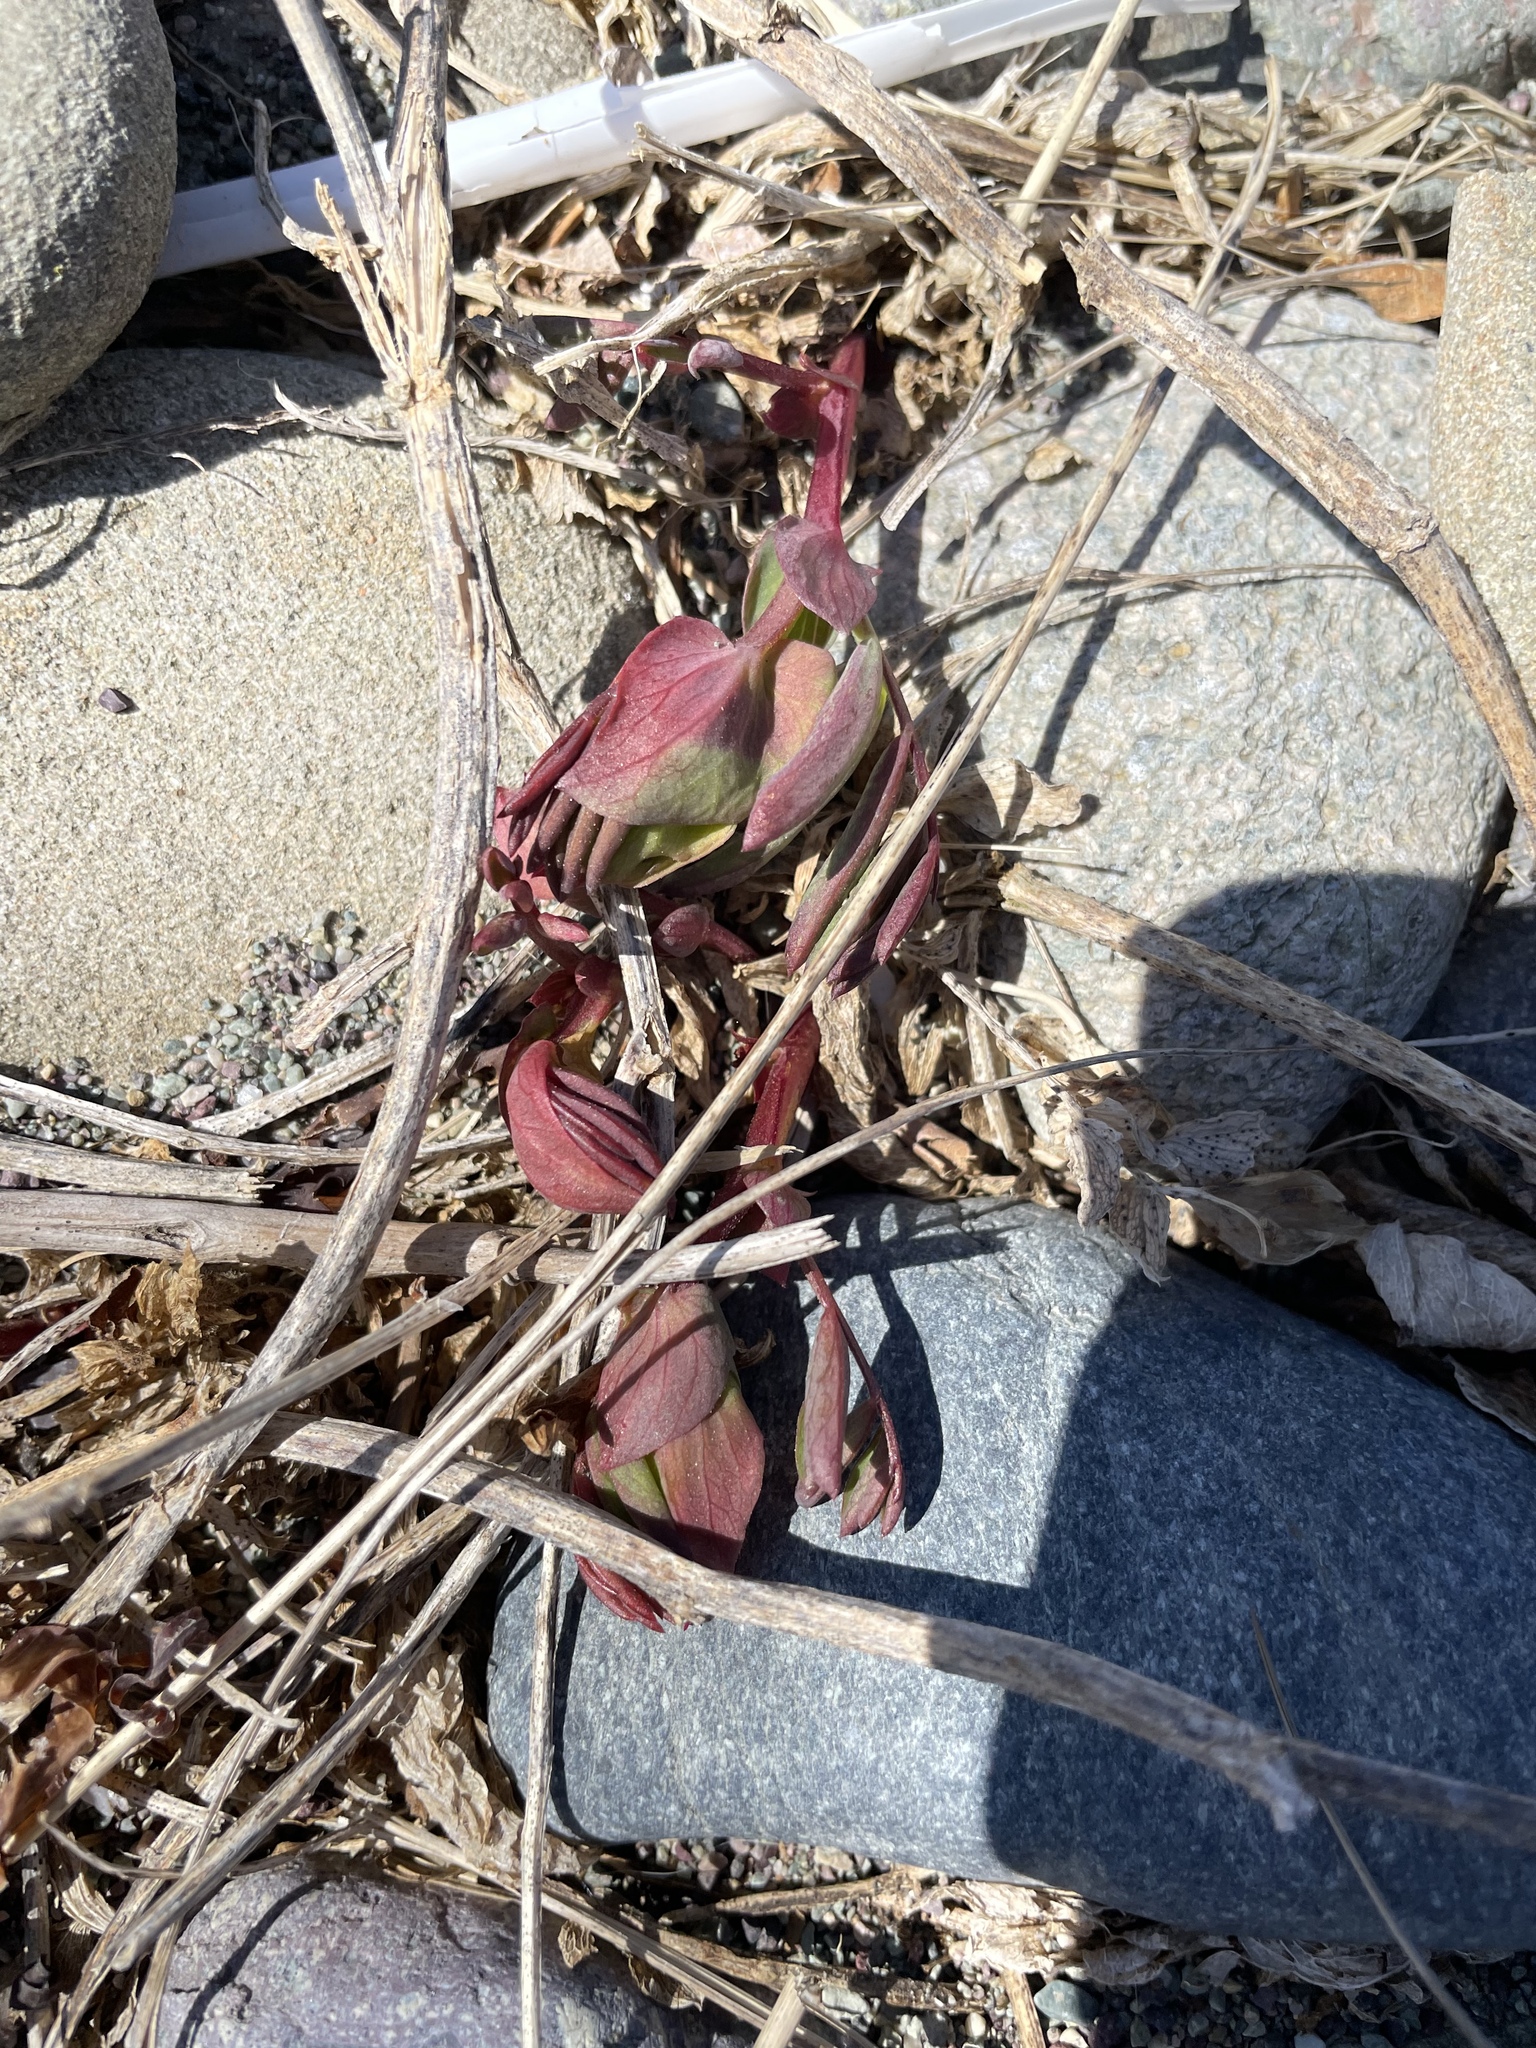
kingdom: Plantae
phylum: Tracheophyta
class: Magnoliopsida
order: Fabales
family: Fabaceae
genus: Lathyrus
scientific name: Lathyrus japonicus
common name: Sea pea
